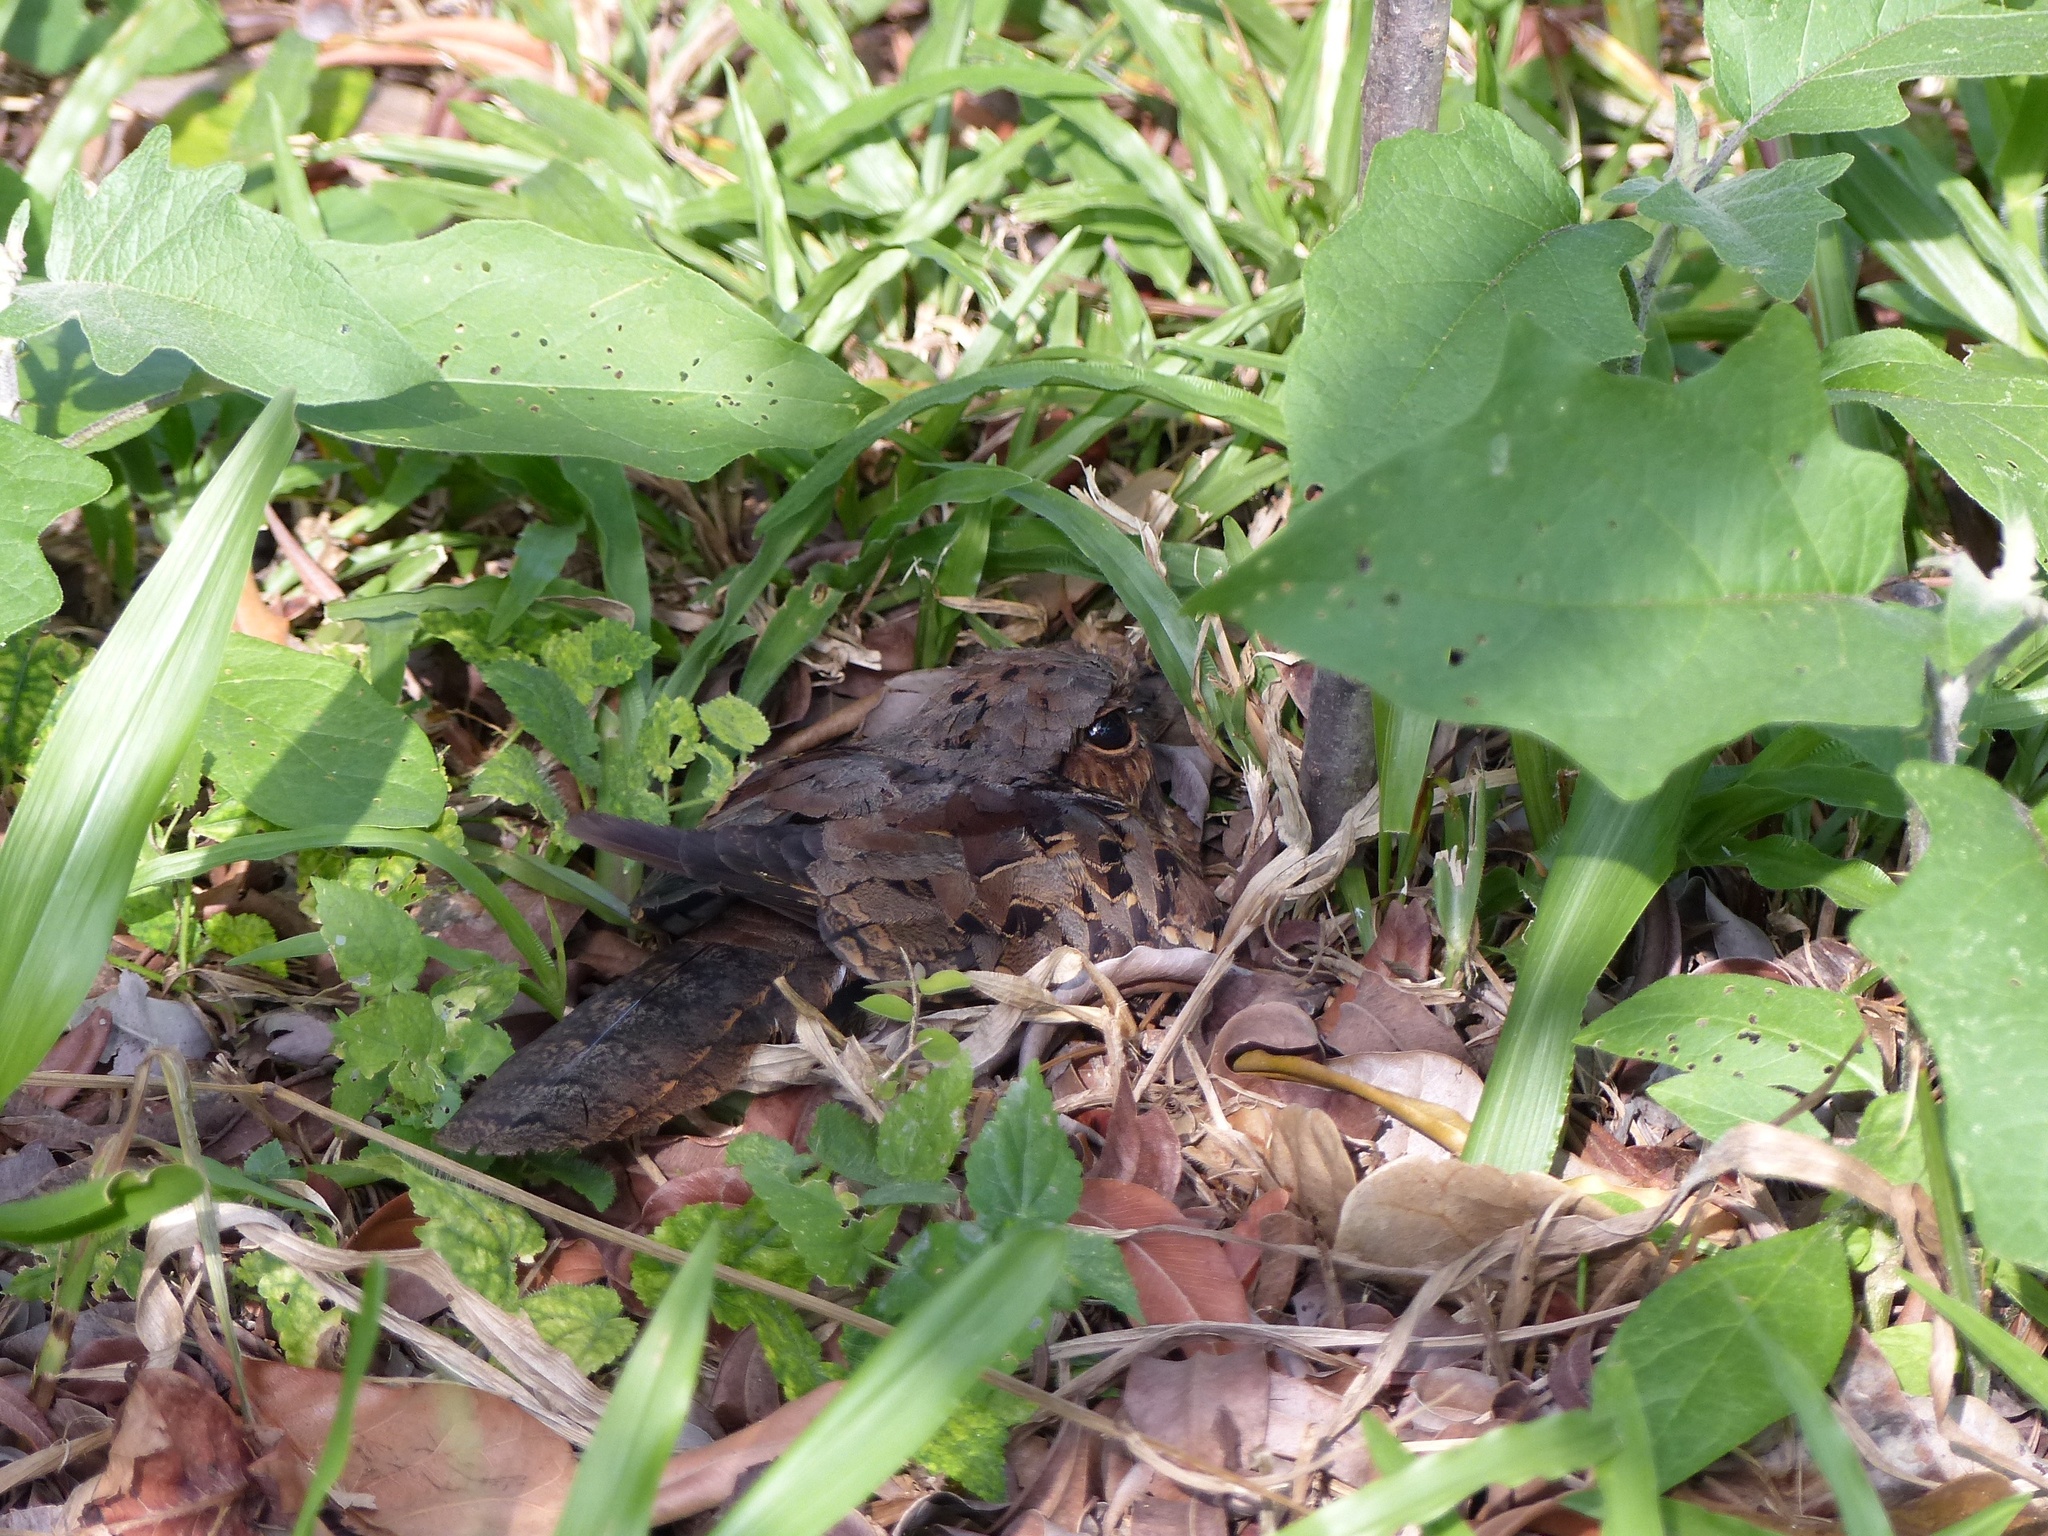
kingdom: Animalia
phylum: Chordata
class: Aves
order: Caprimulgiformes
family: Caprimulgidae
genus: Nyctidromus
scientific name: Nyctidromus albicollis
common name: Pauraque
